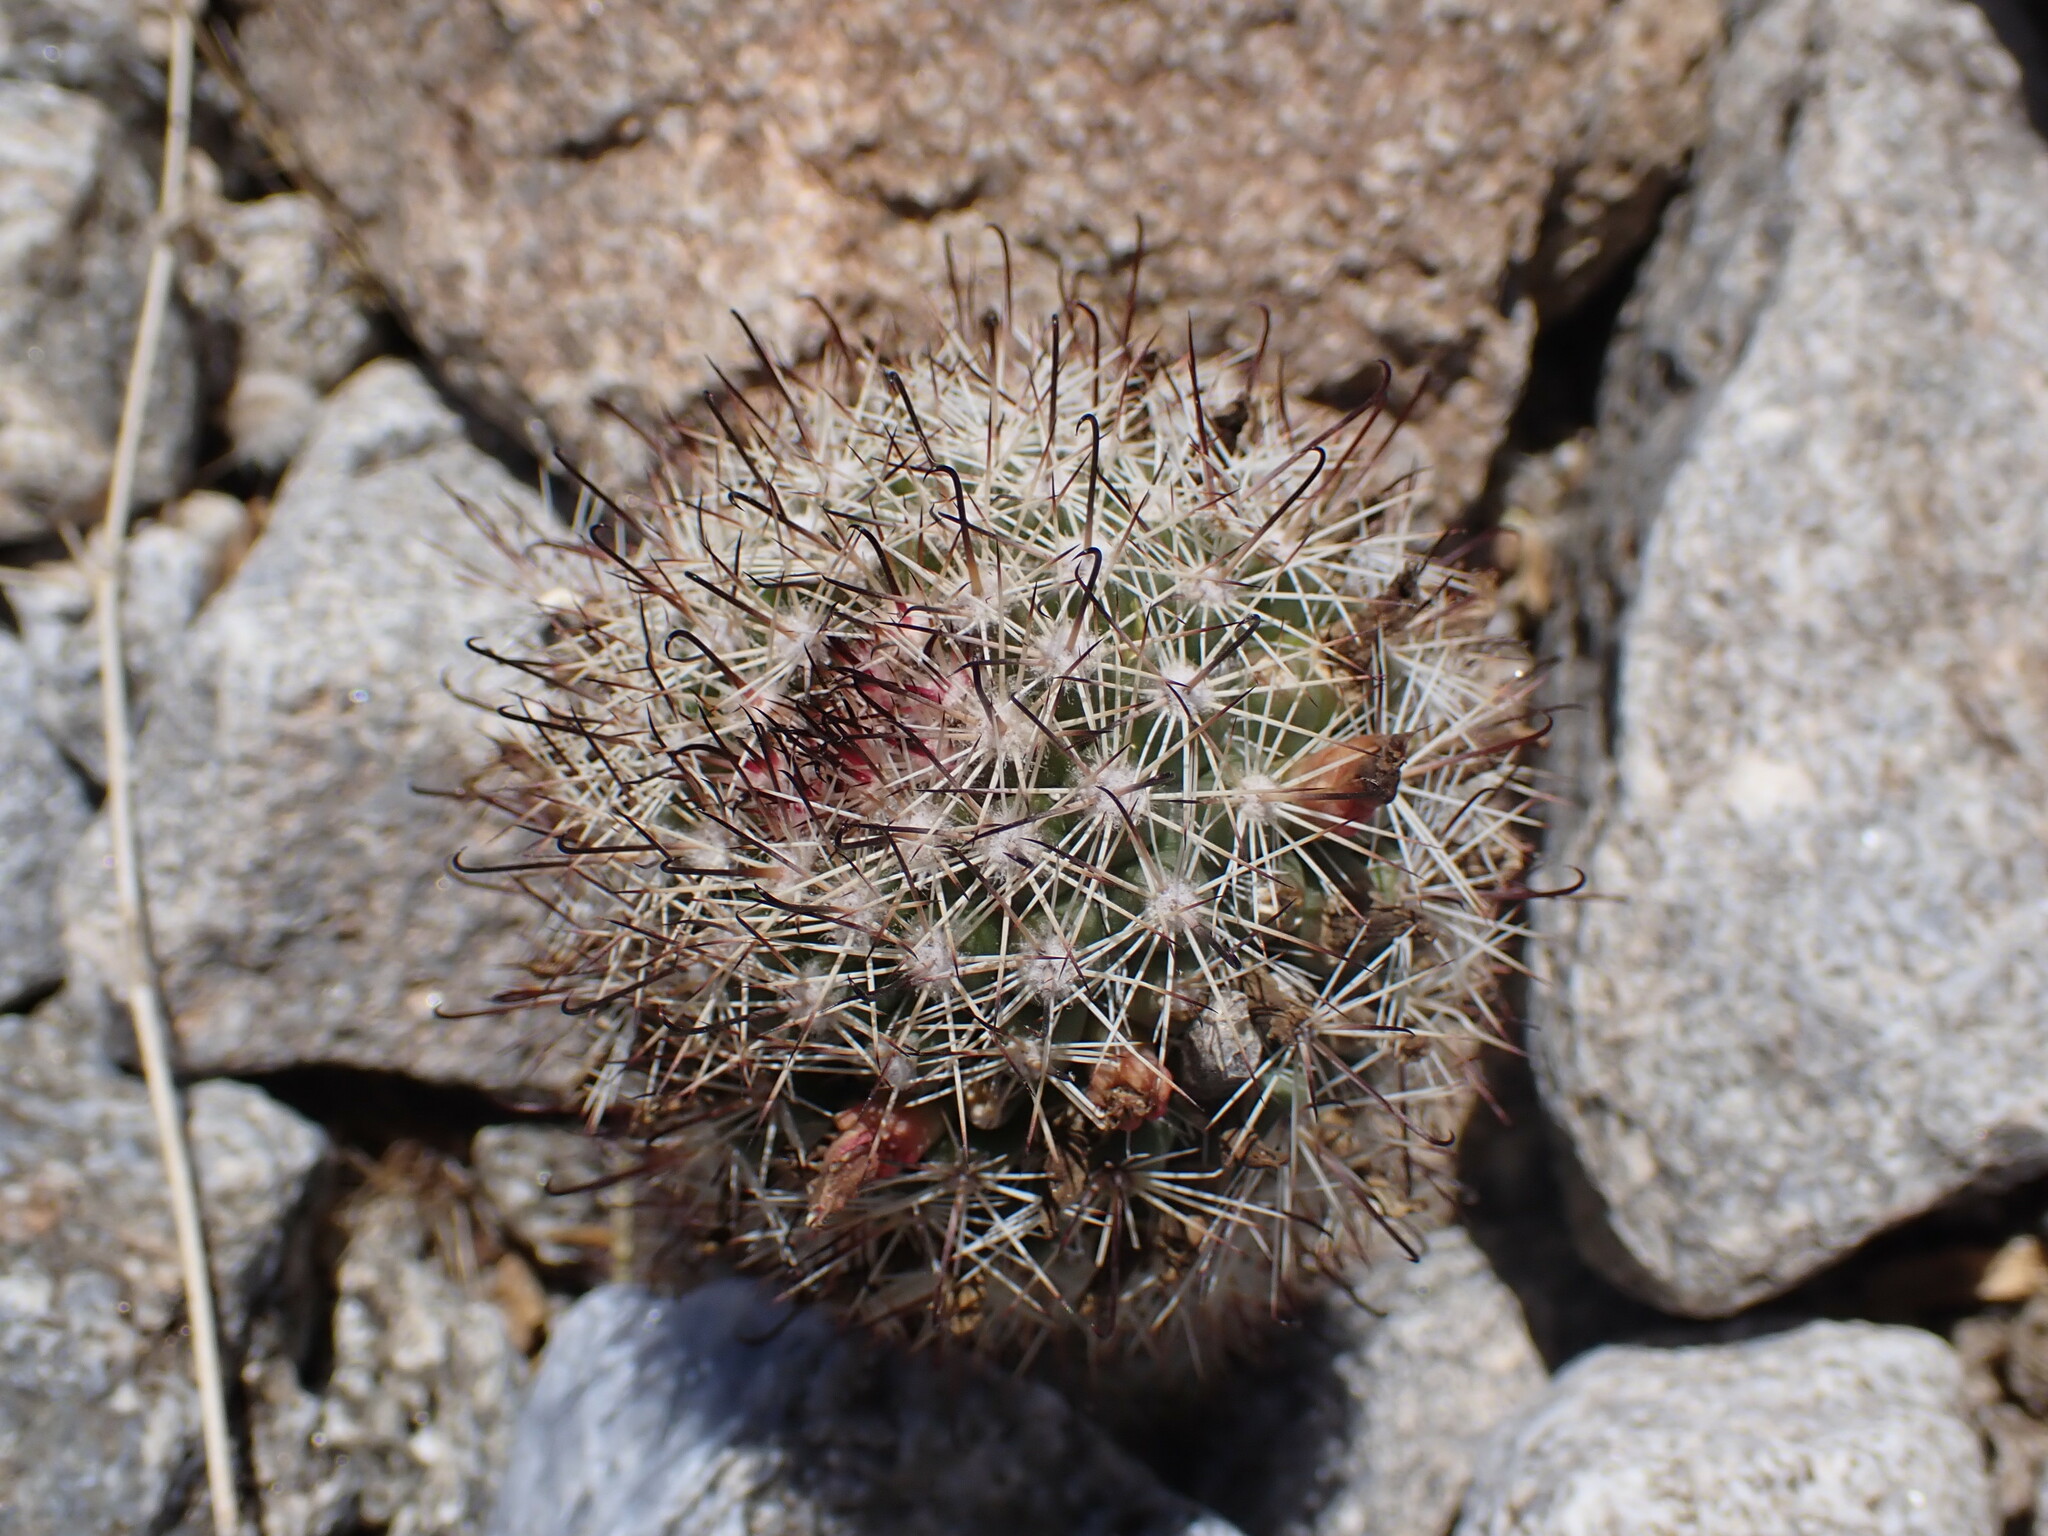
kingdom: Plantae
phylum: Tracheophyta
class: Magnoliopsida
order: Caryophyllales
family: Cactaceae
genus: Cochemiea
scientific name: Cochemiea dioica
